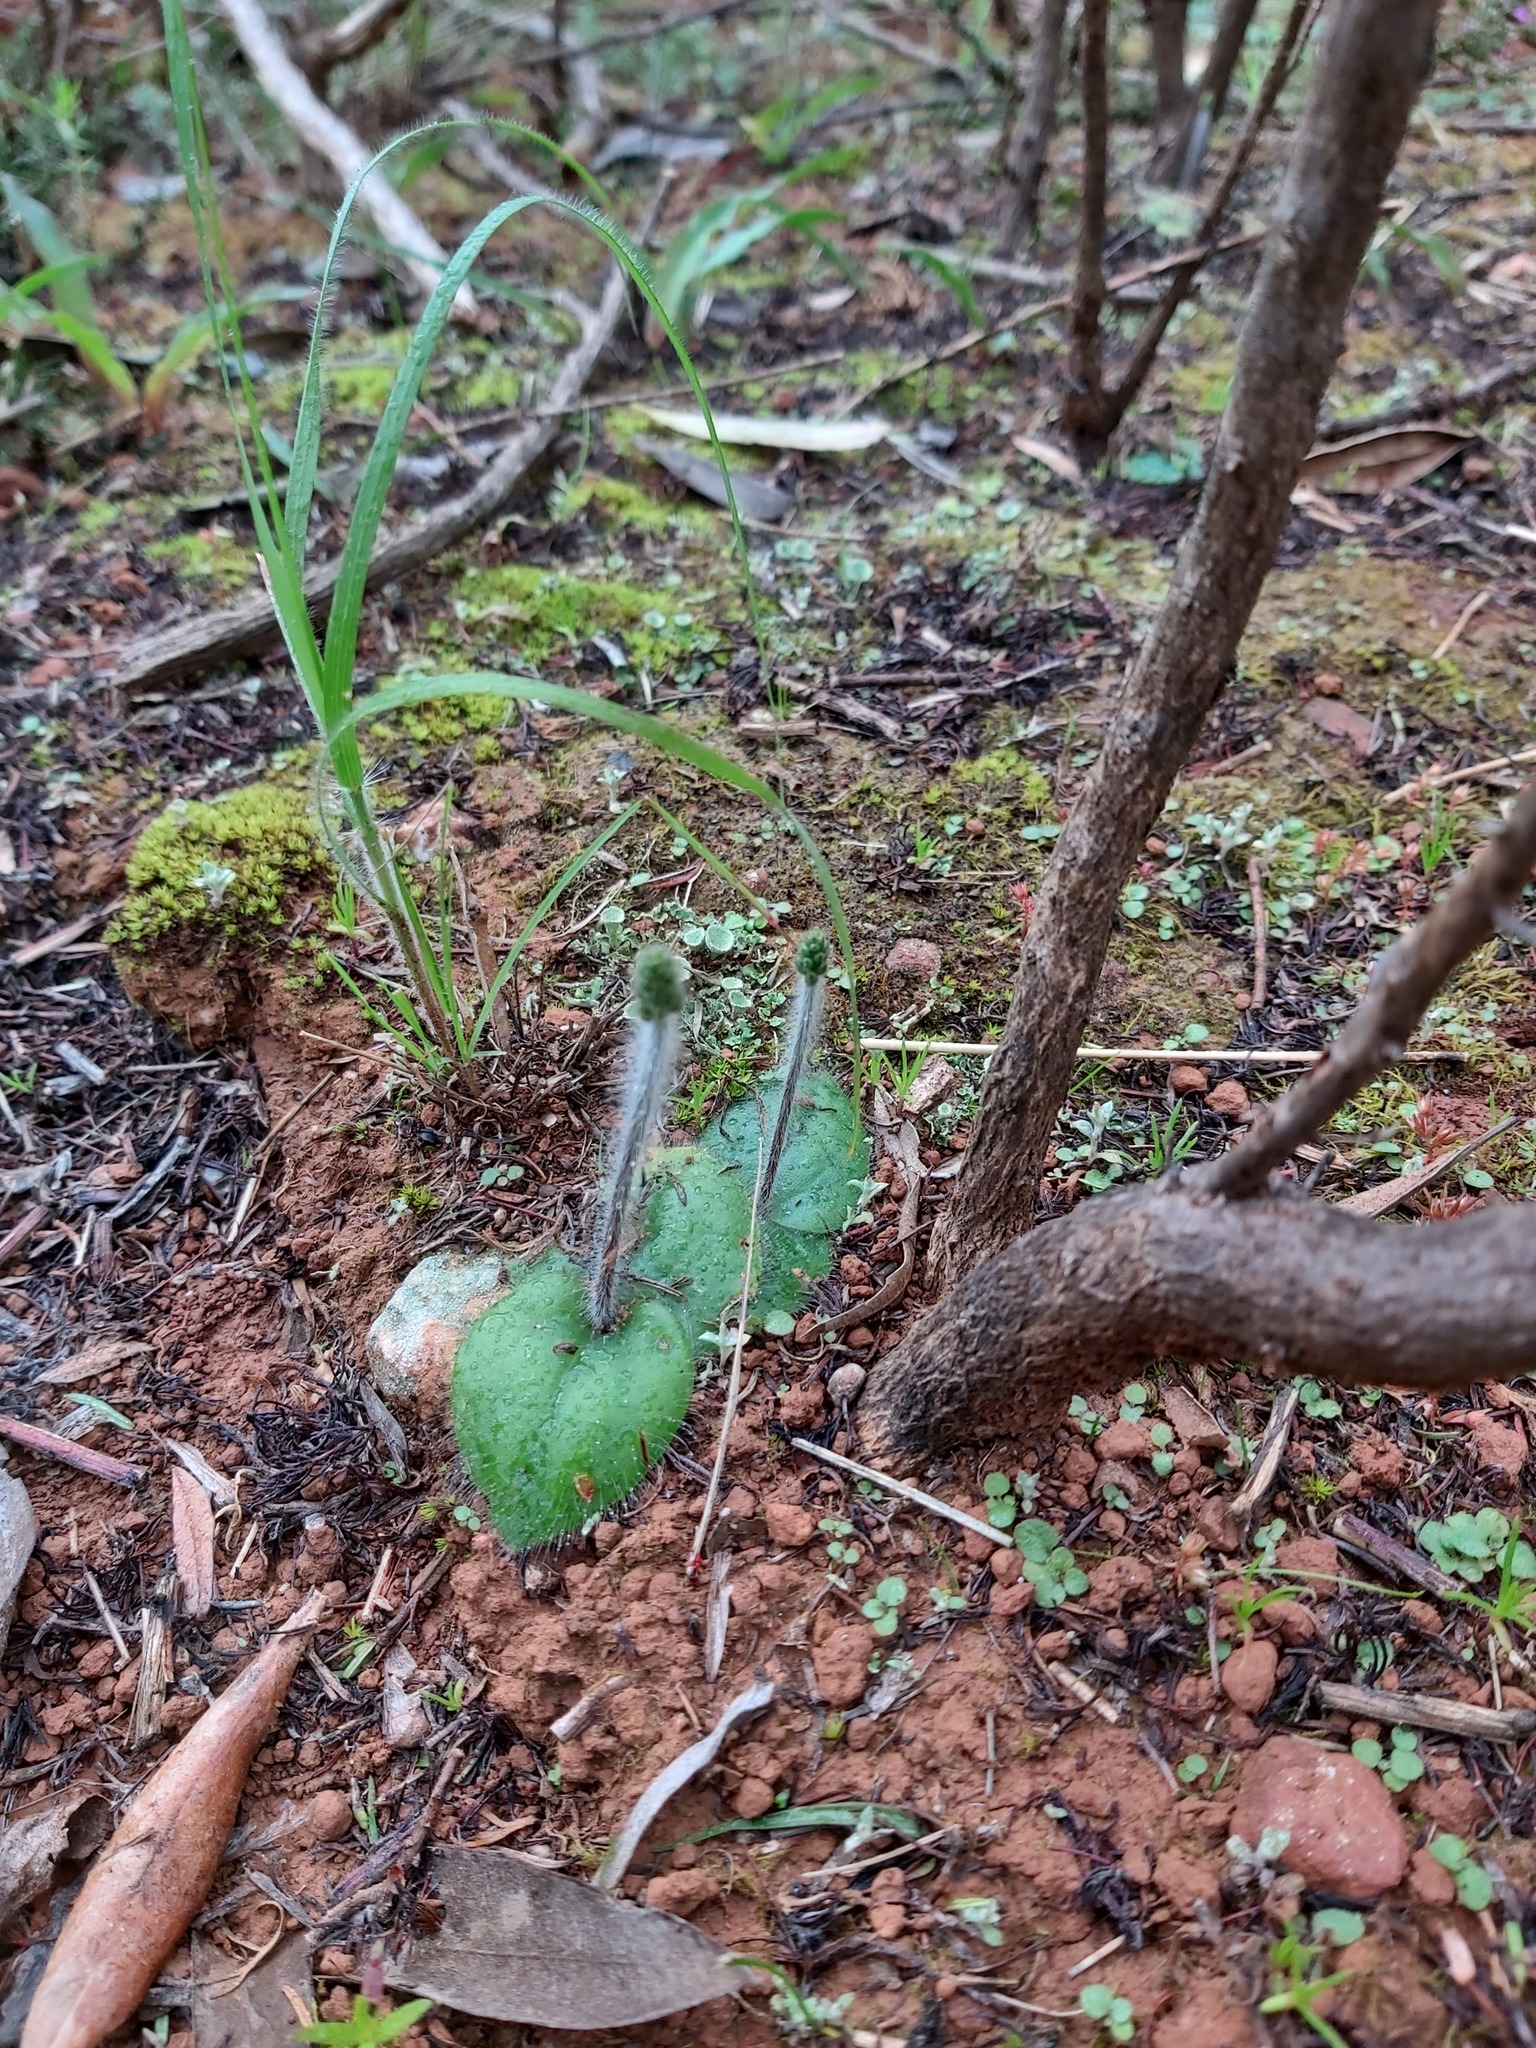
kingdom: Plantae
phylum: Tracheophyta
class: Liliopsida
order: Asparagales
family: Orchidaceae
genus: Holothrix
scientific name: Holothrix villosa
